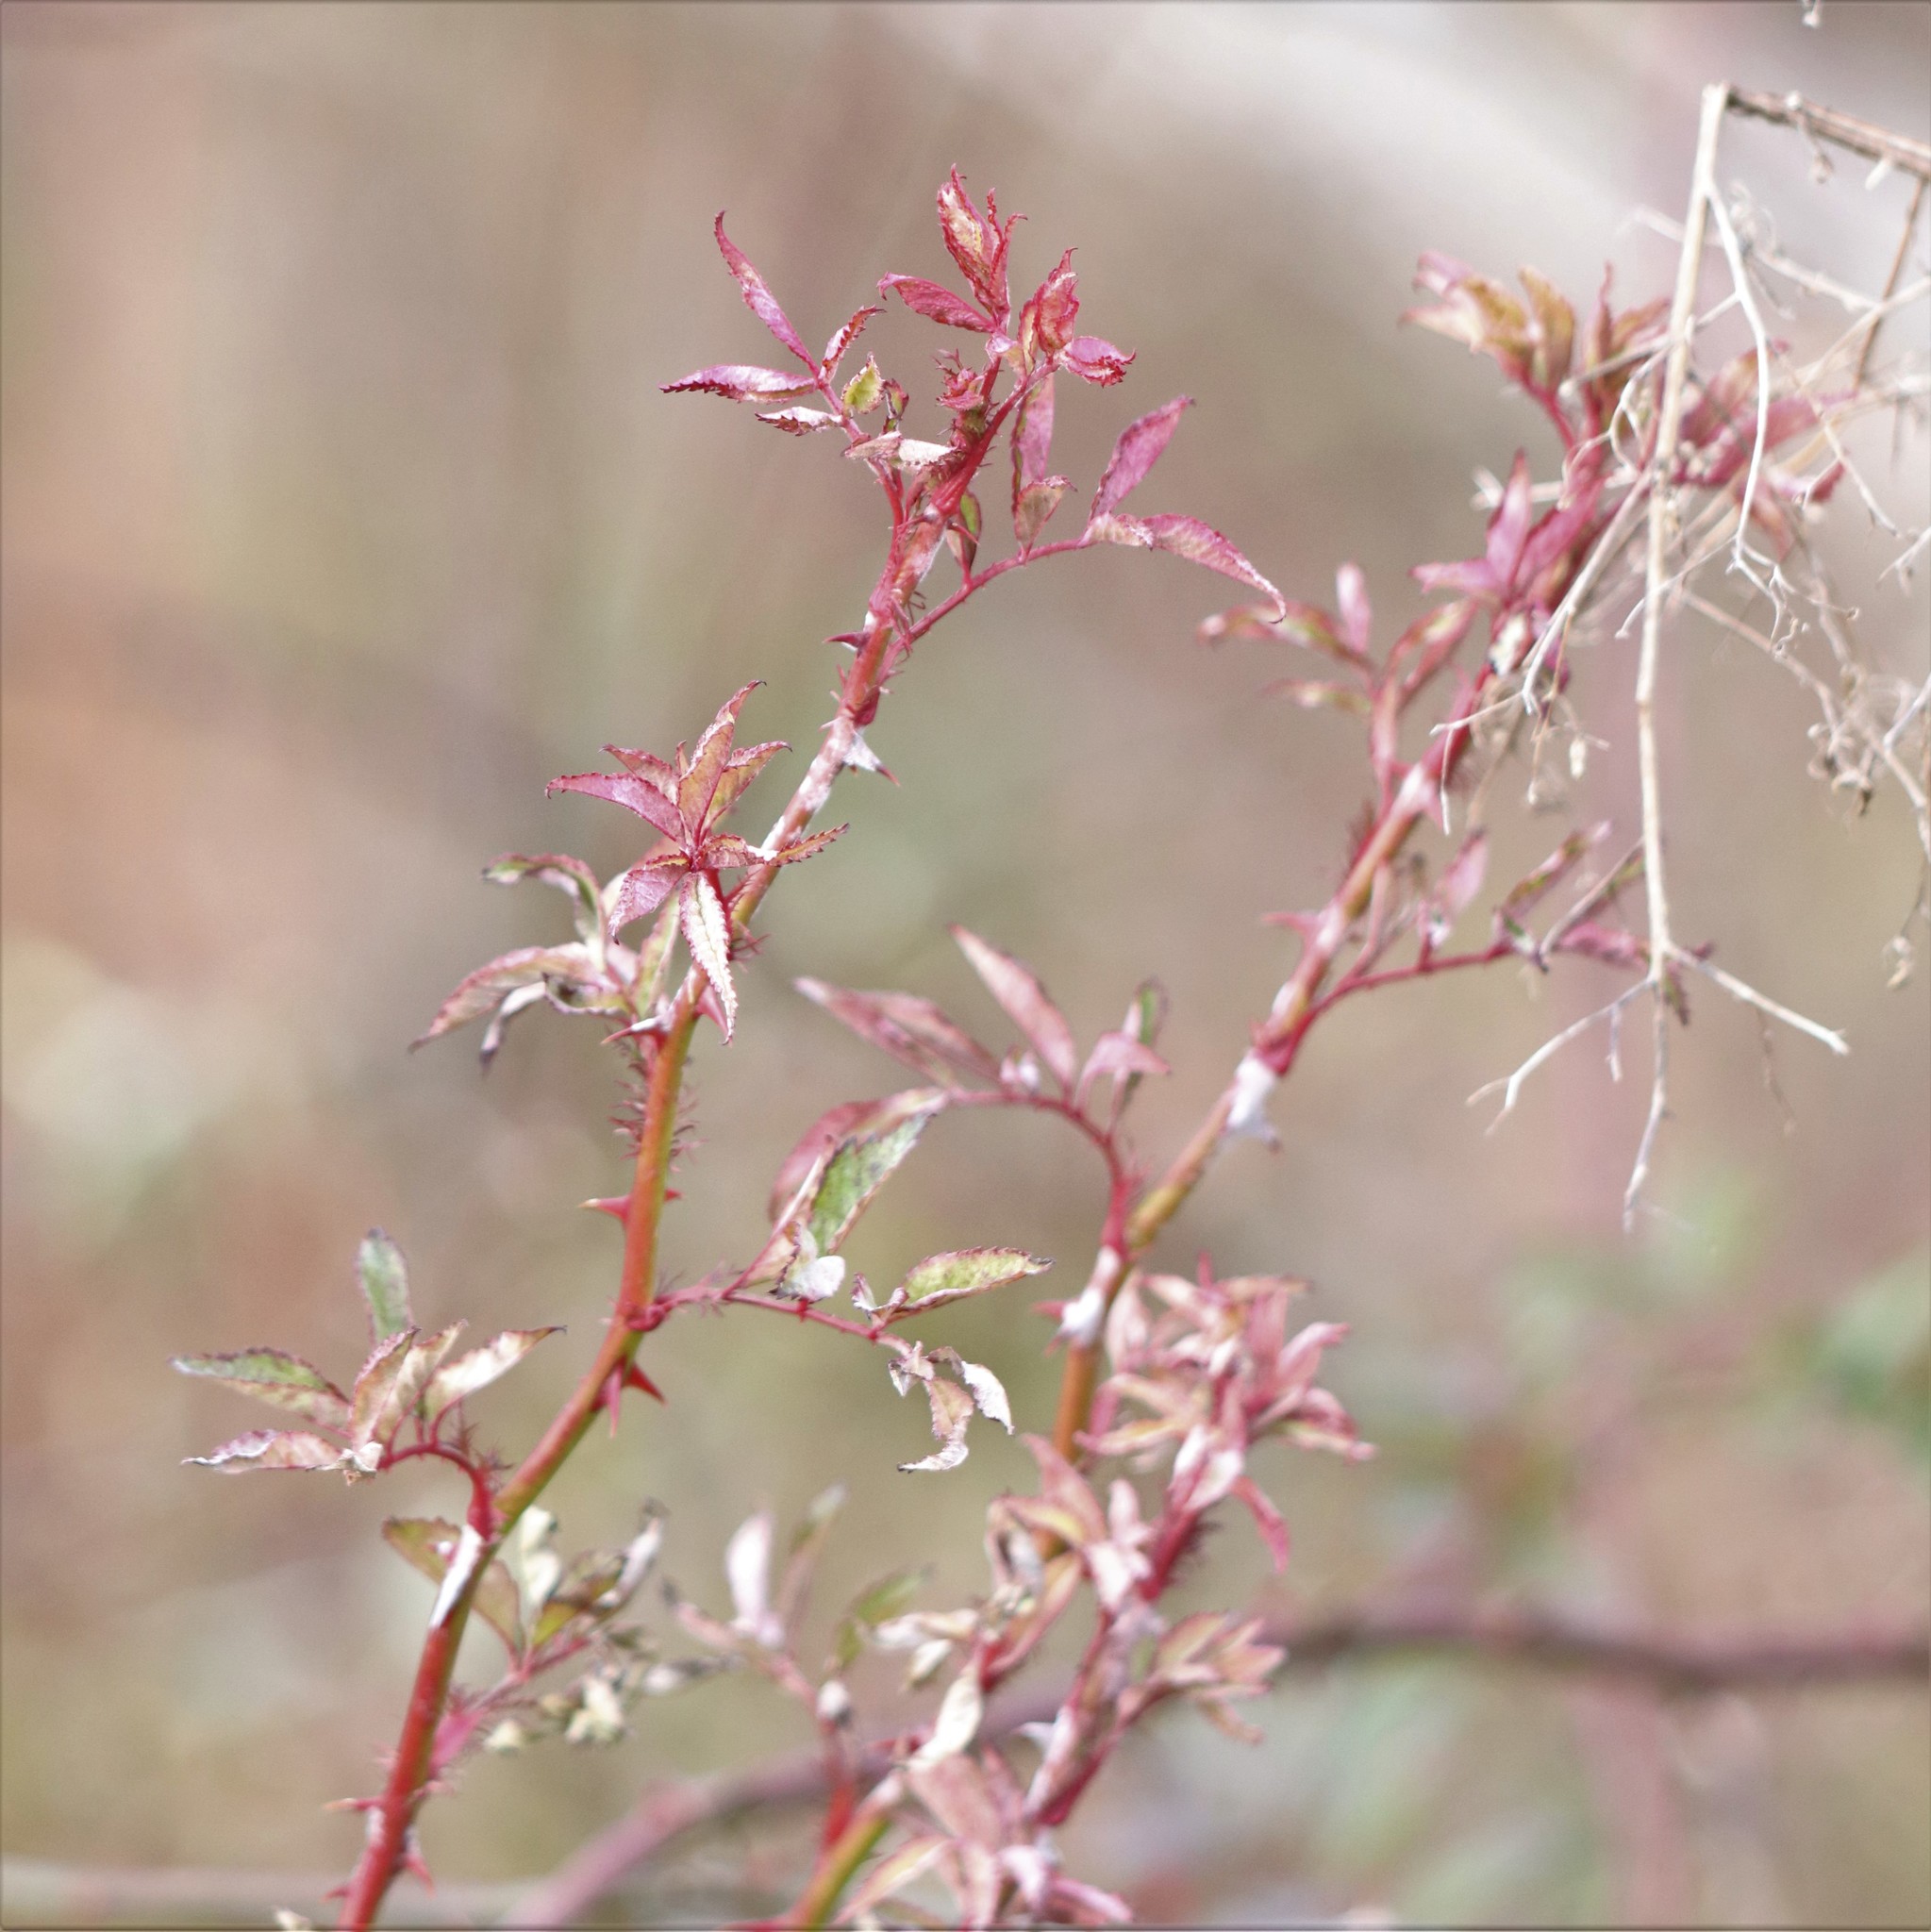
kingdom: Viruses
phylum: Negarnaviricota
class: Ellioviricetes
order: Bunyavirales
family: Fimoviridae
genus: Emaravirus
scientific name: Emaravirus rosae
